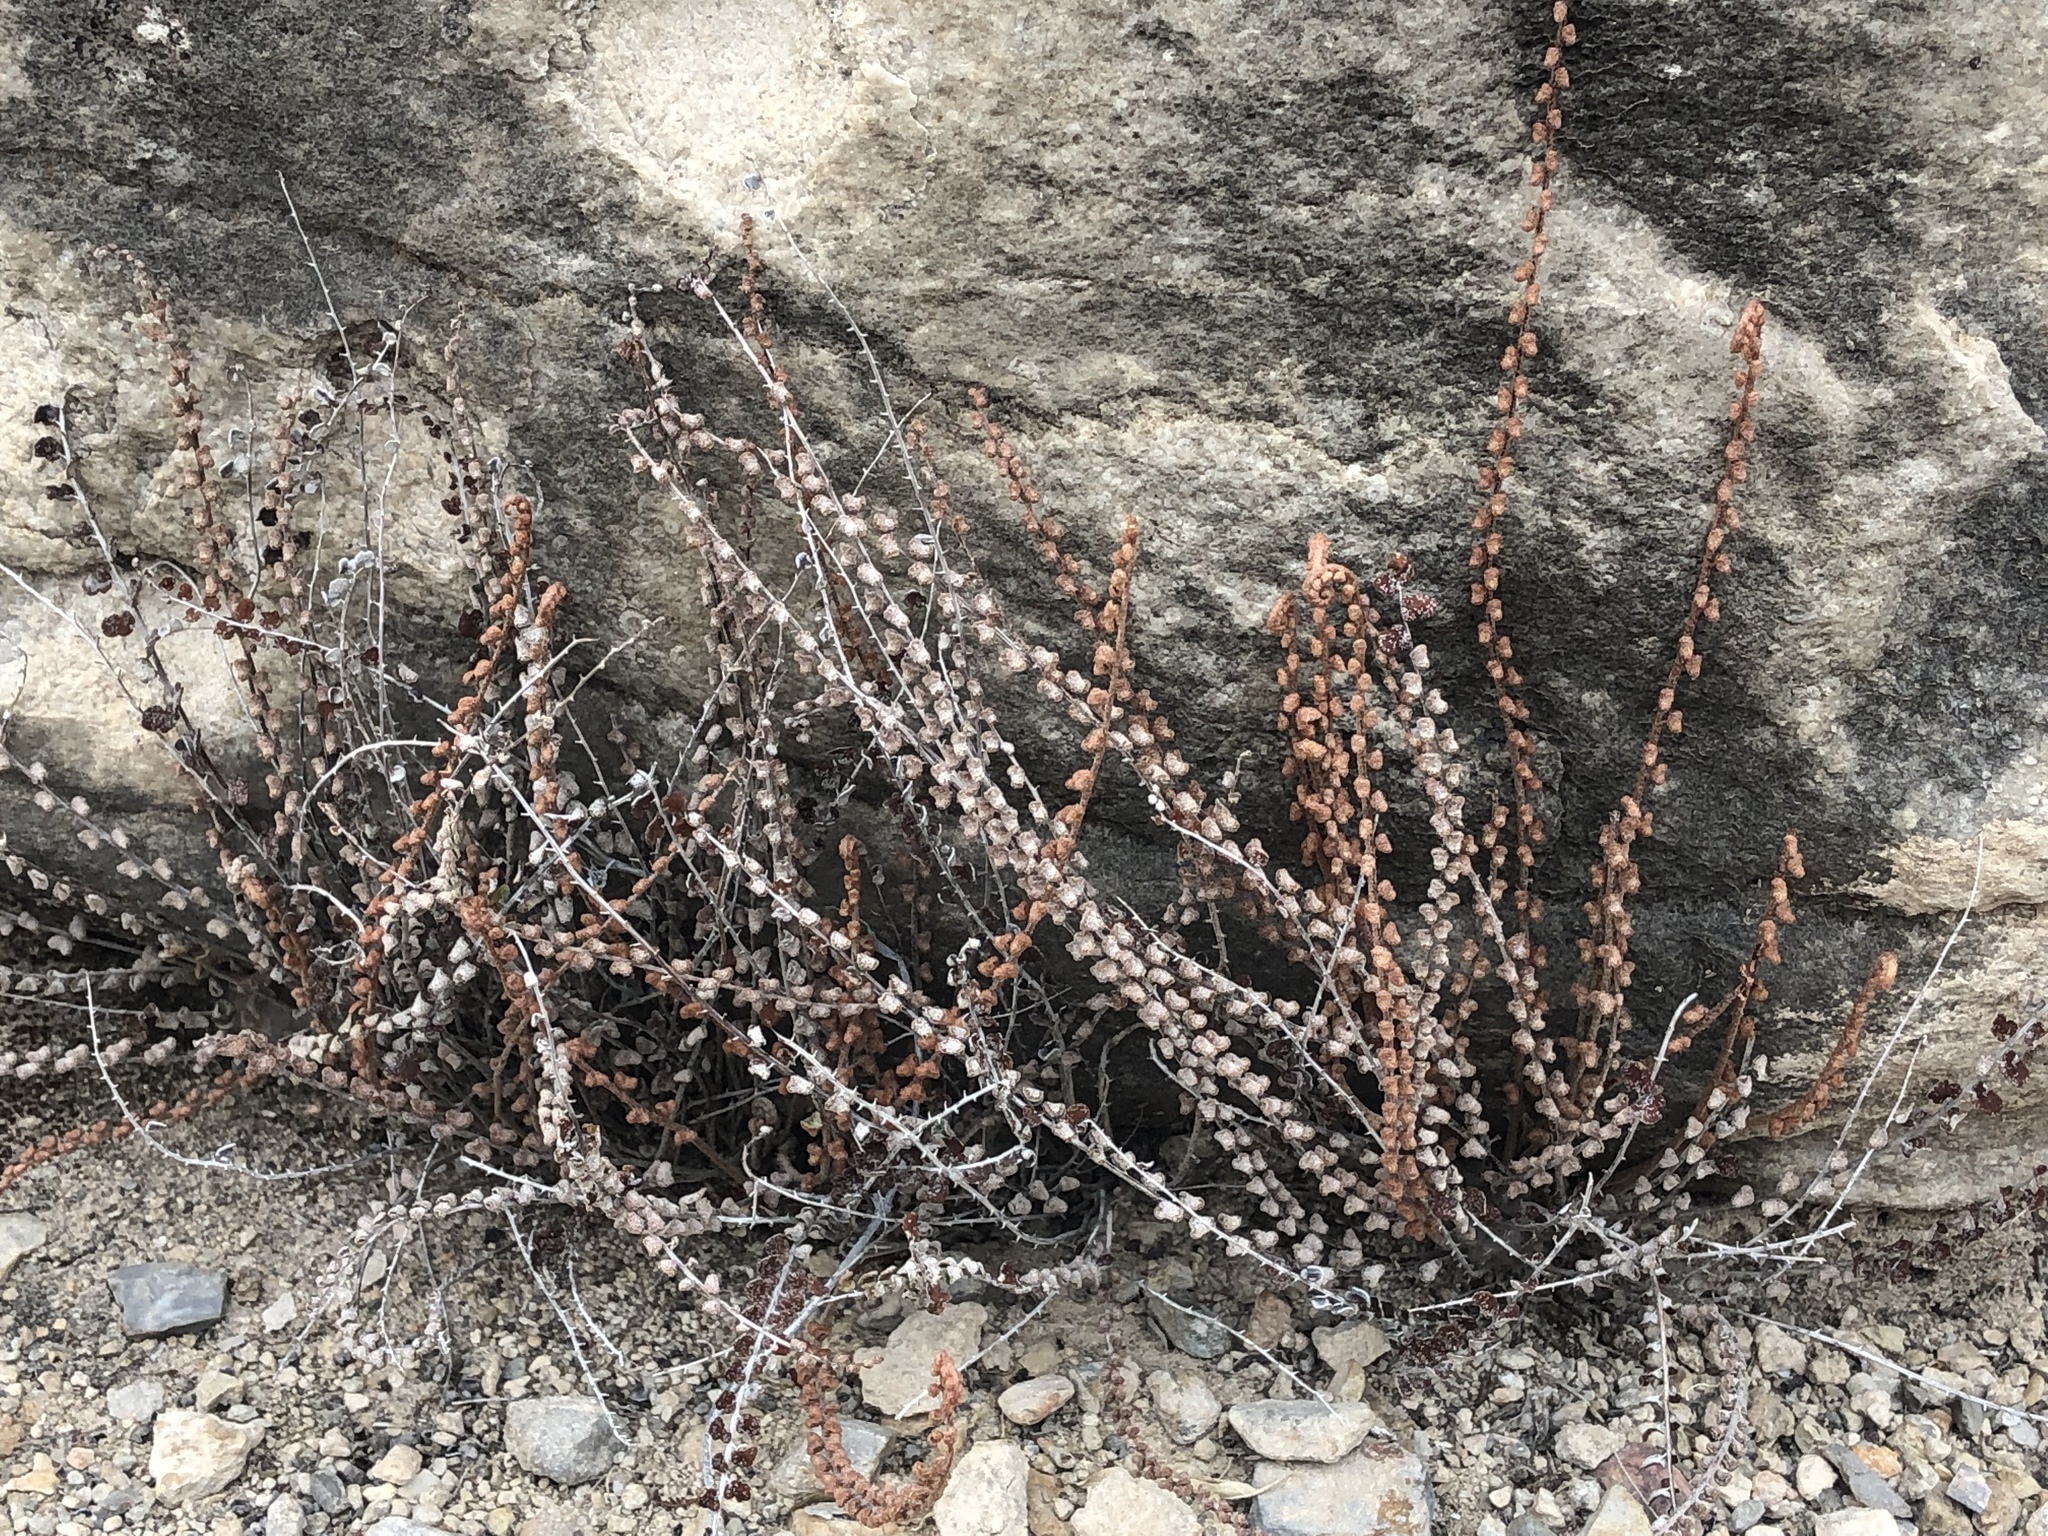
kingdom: Plantae
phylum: Tracheophyta
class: Polypodiopsida
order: Polypodiales
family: Pteridaceae
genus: Astrolepis
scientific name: Astrolepis cochisensis
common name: Scaly cloak fern
